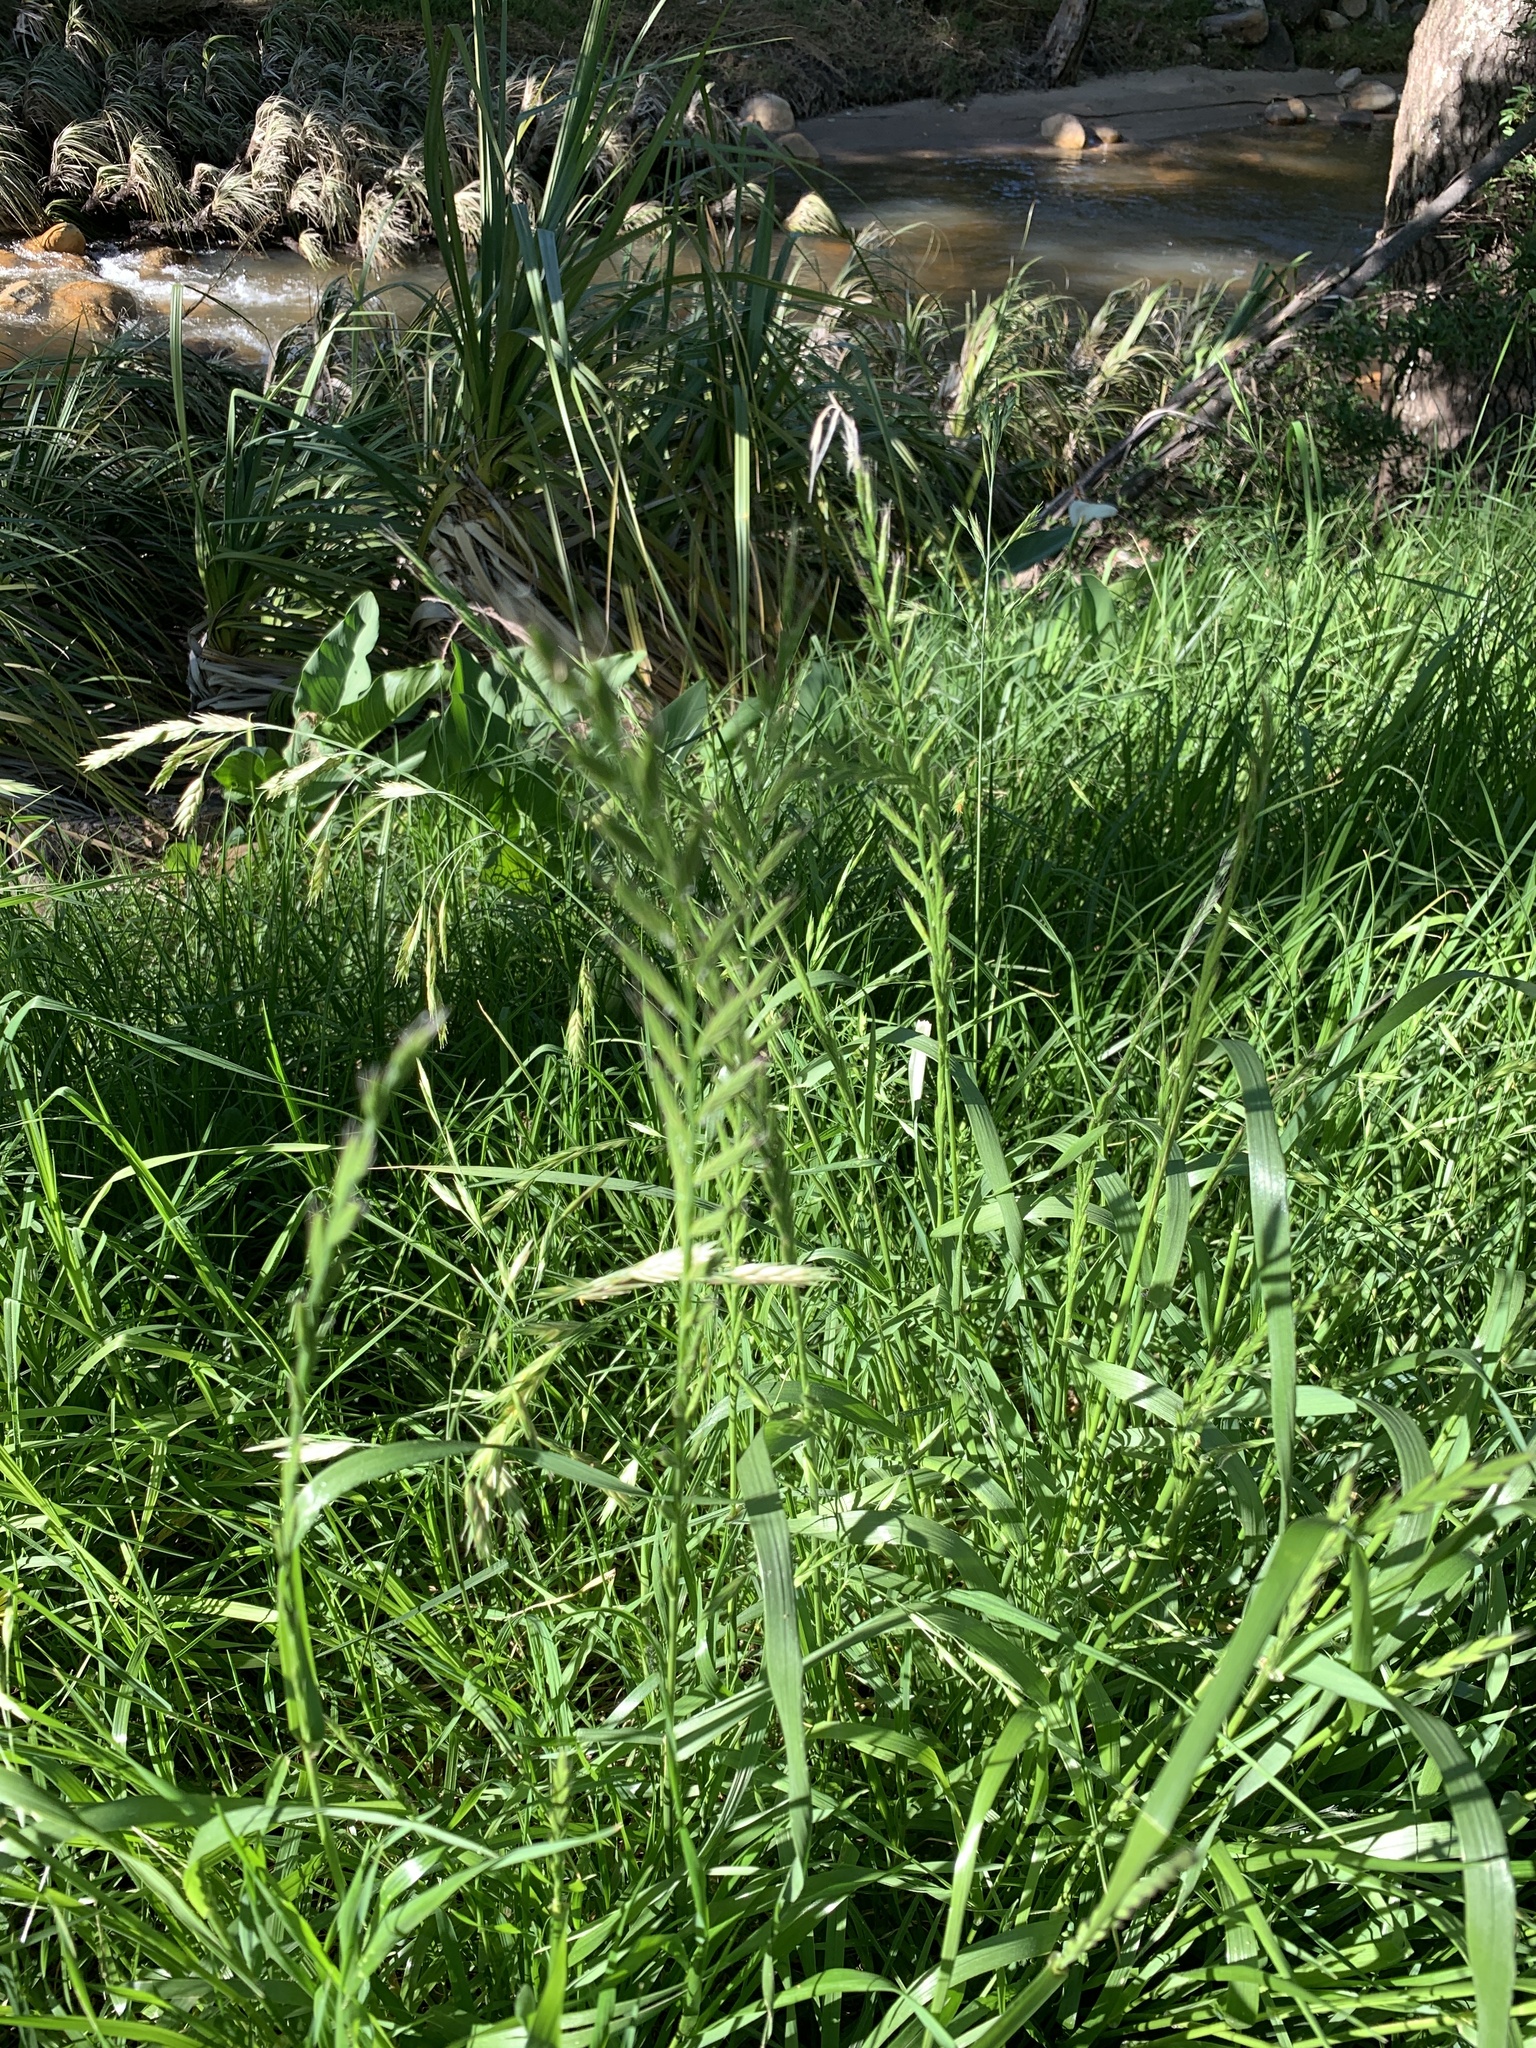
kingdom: Plantae
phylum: Tracheophyta
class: Liliopsida
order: Poales
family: Poaceae
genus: Lolium
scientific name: Lolium multiflorum
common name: Annual ryegrass
